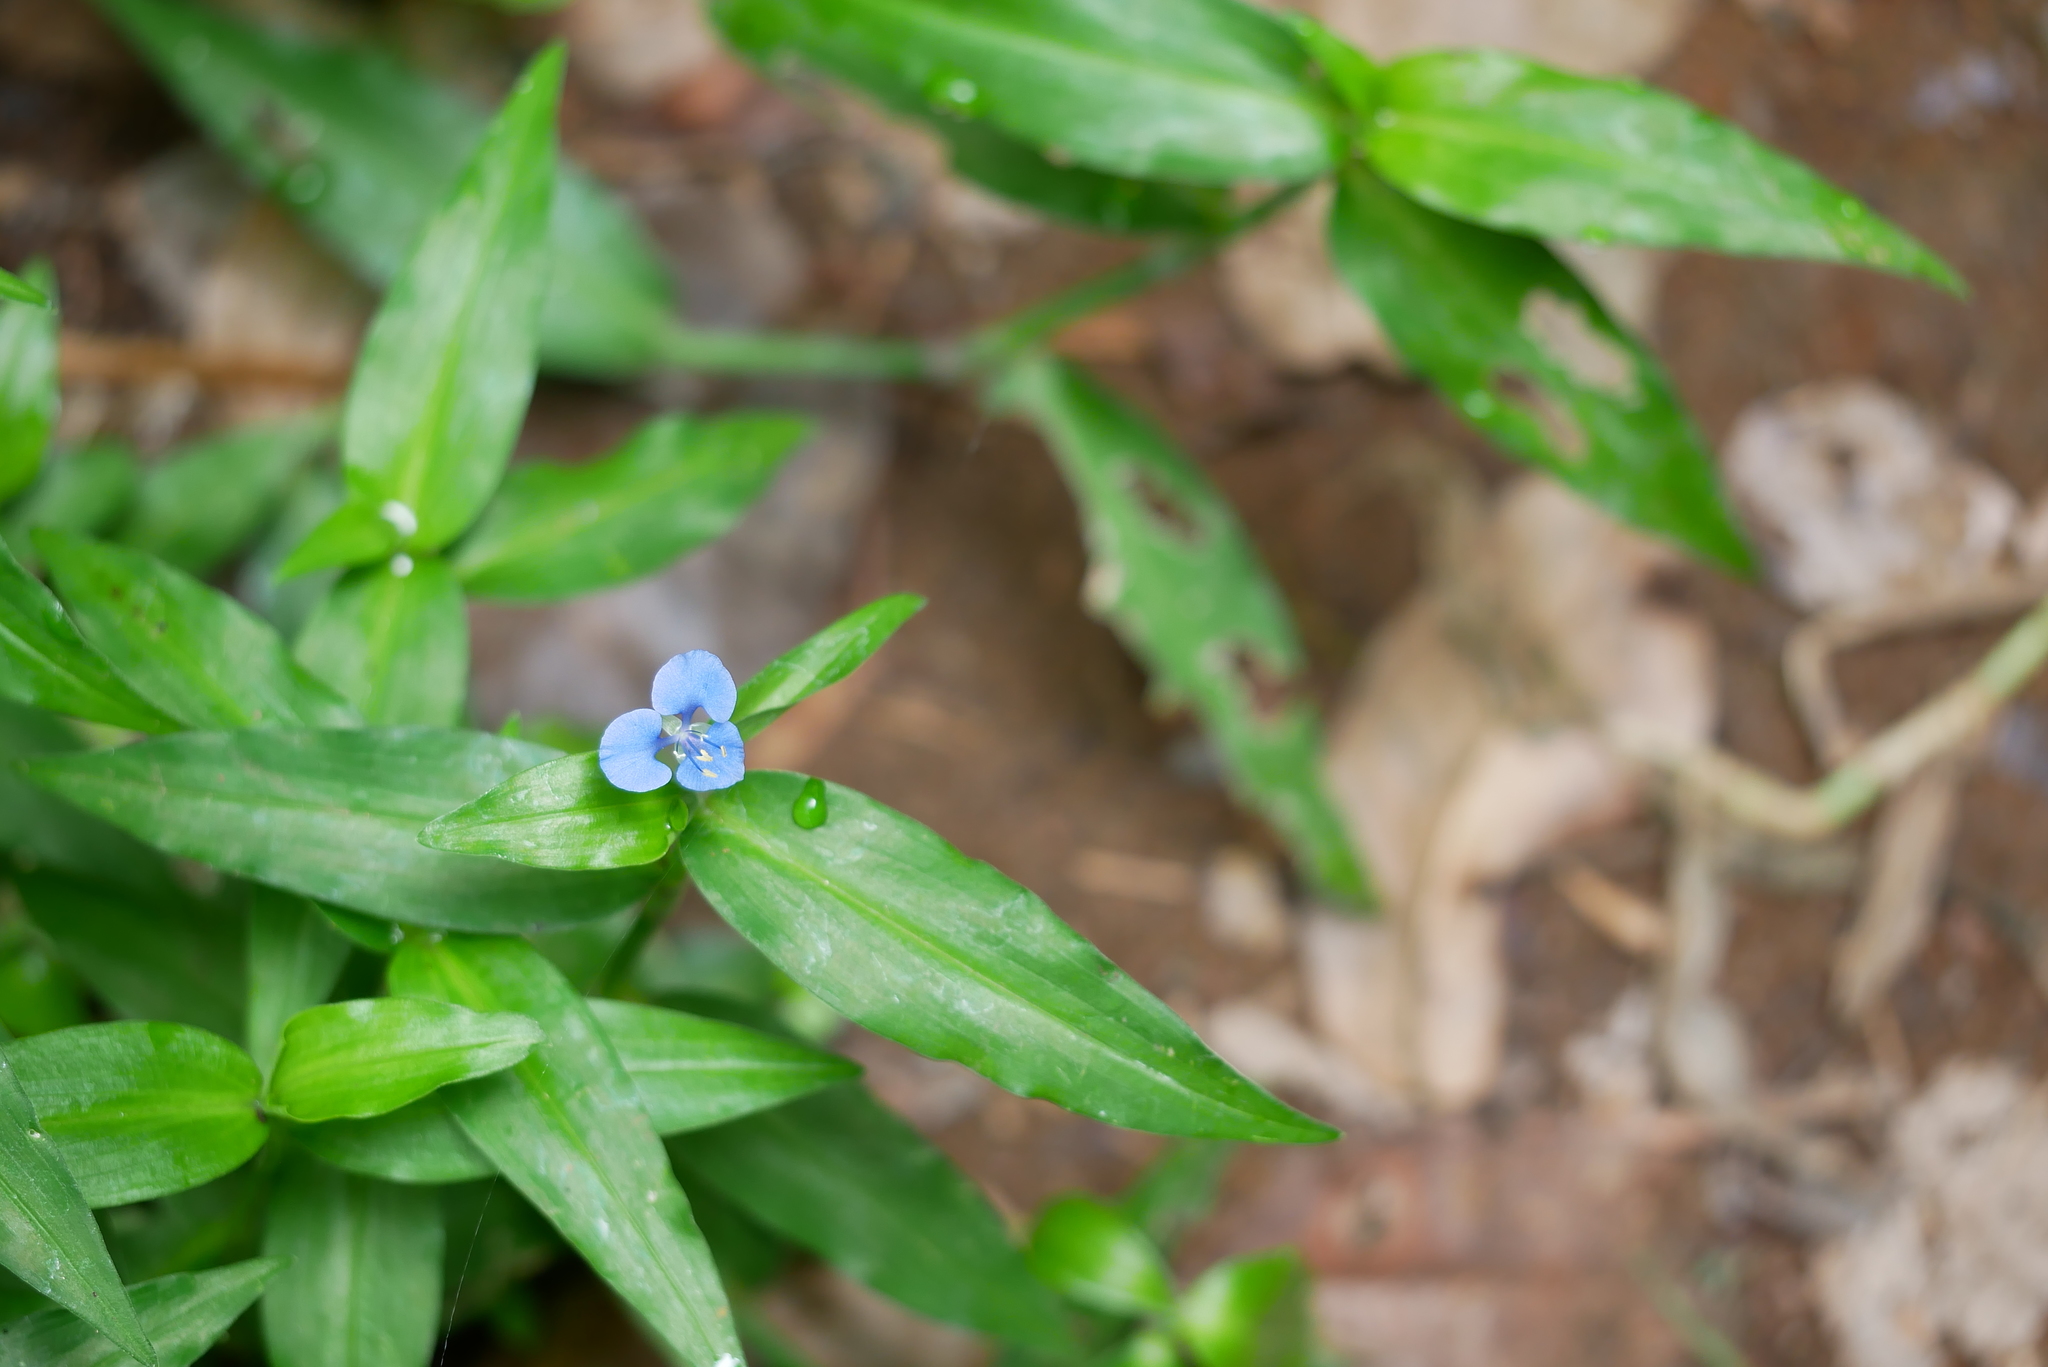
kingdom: Plantae
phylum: Tracheophyta
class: Liliopsida
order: Commelinales
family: Commelinaceae
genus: Commelina
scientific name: Commelina diffusa
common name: Climbing dayflower
